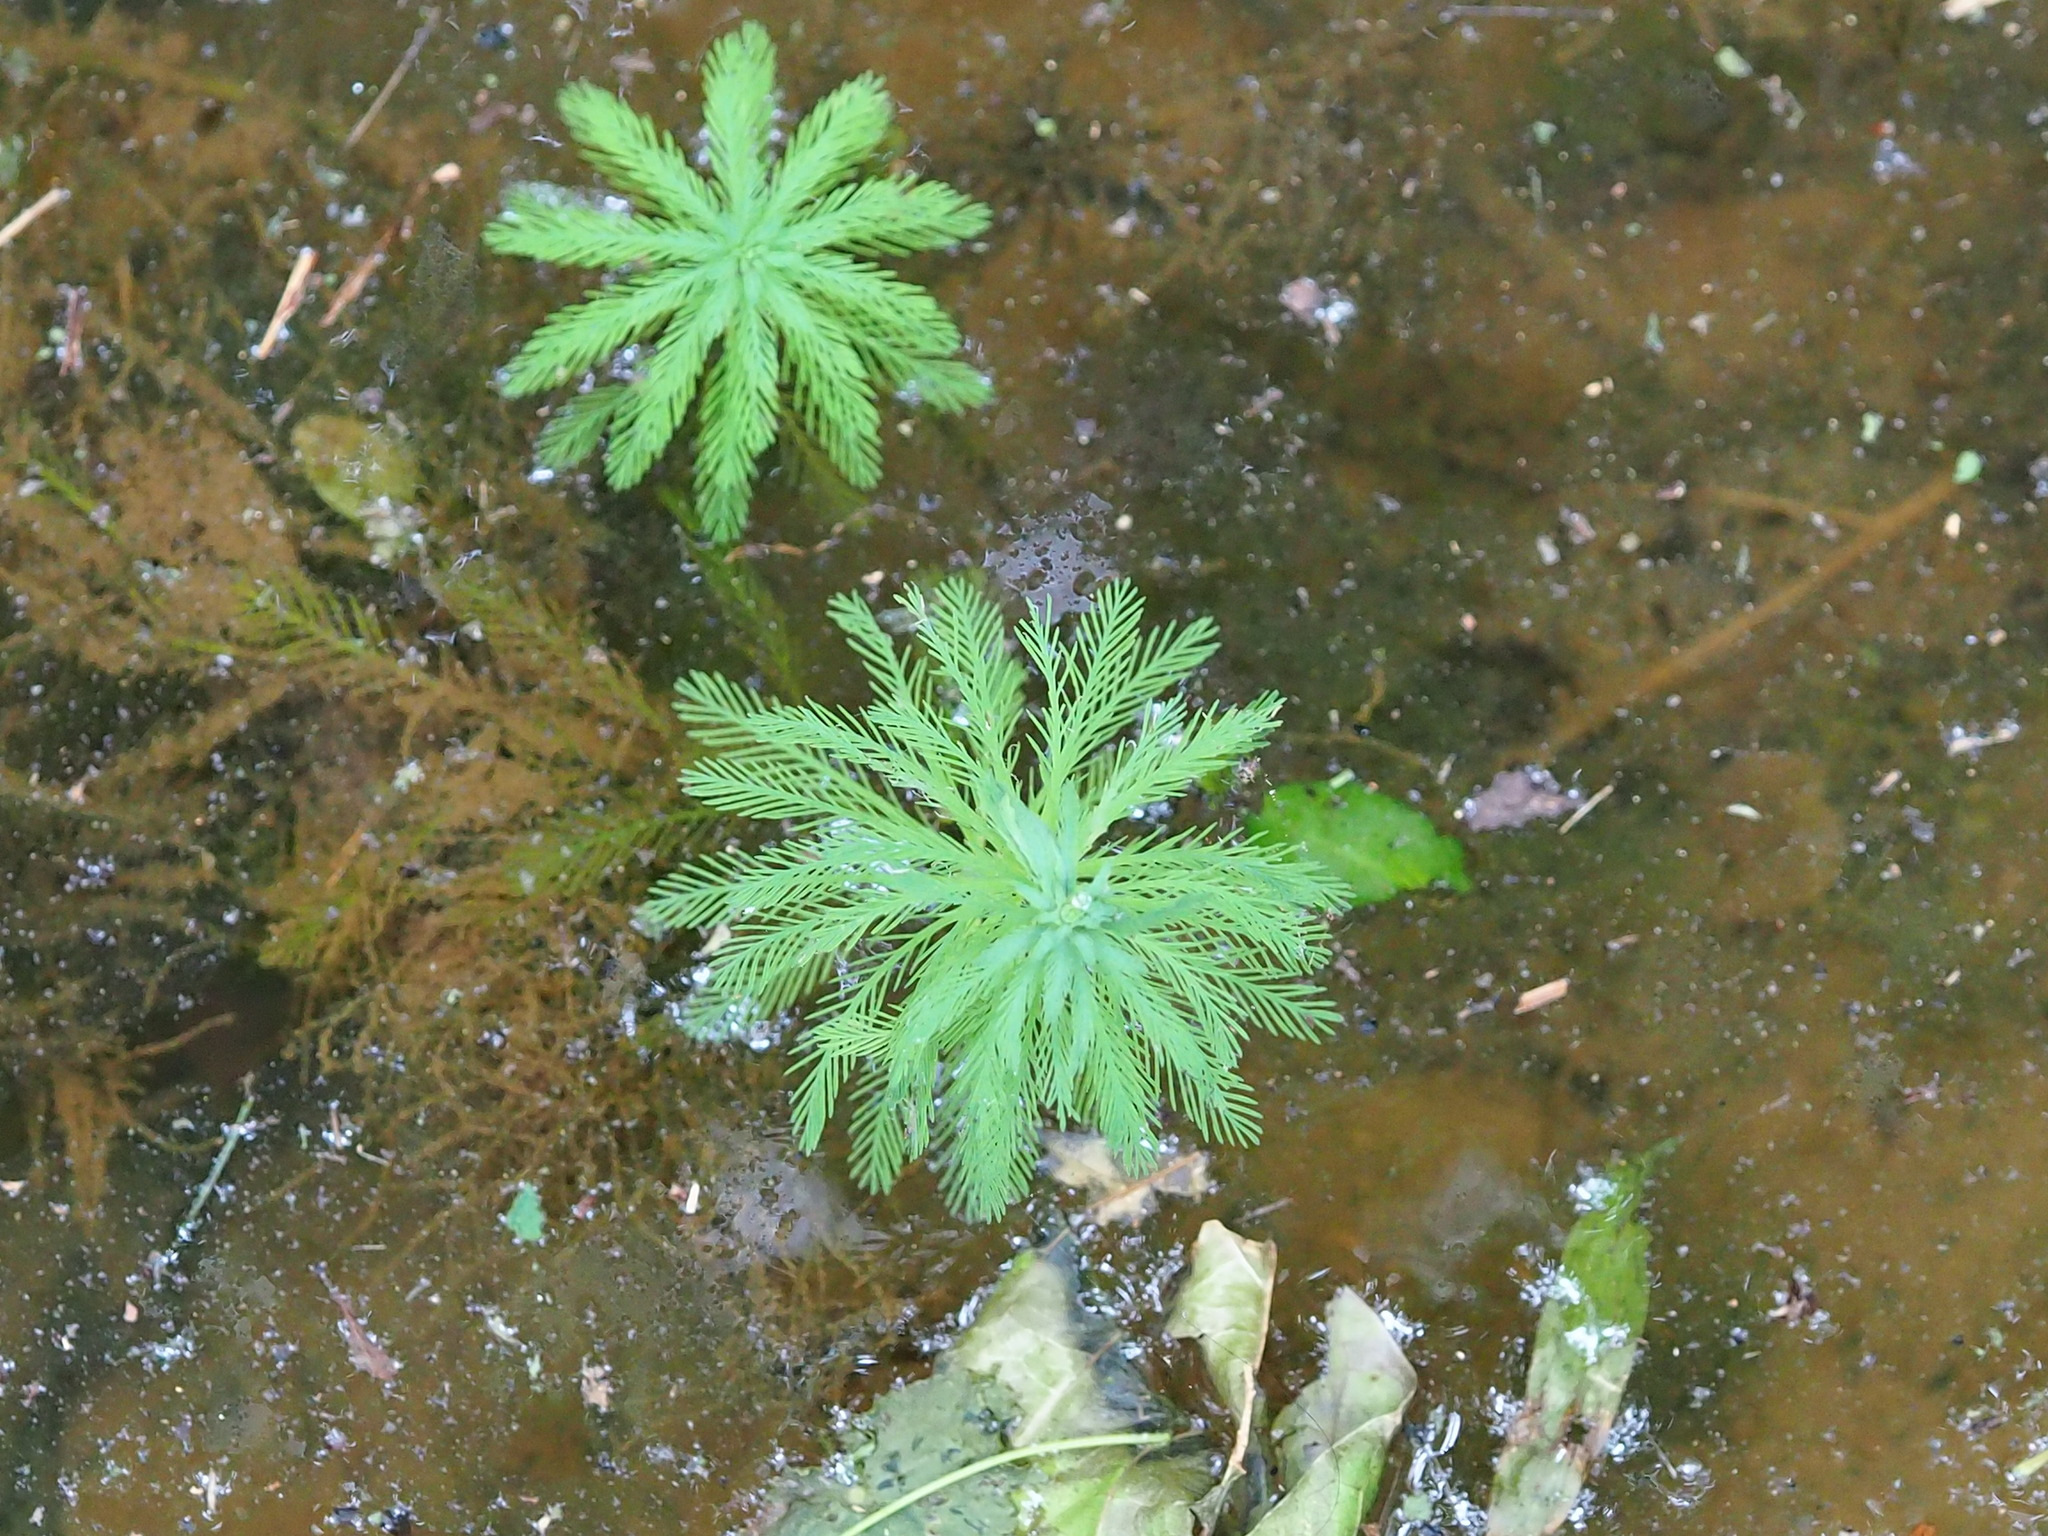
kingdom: Plantae
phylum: Tracheophyta
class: Magnoliopsida
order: Saxifragales
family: Haloragaceae
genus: Myriophyllum
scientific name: Myriophyllum aquaticum
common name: Parrot's feather
